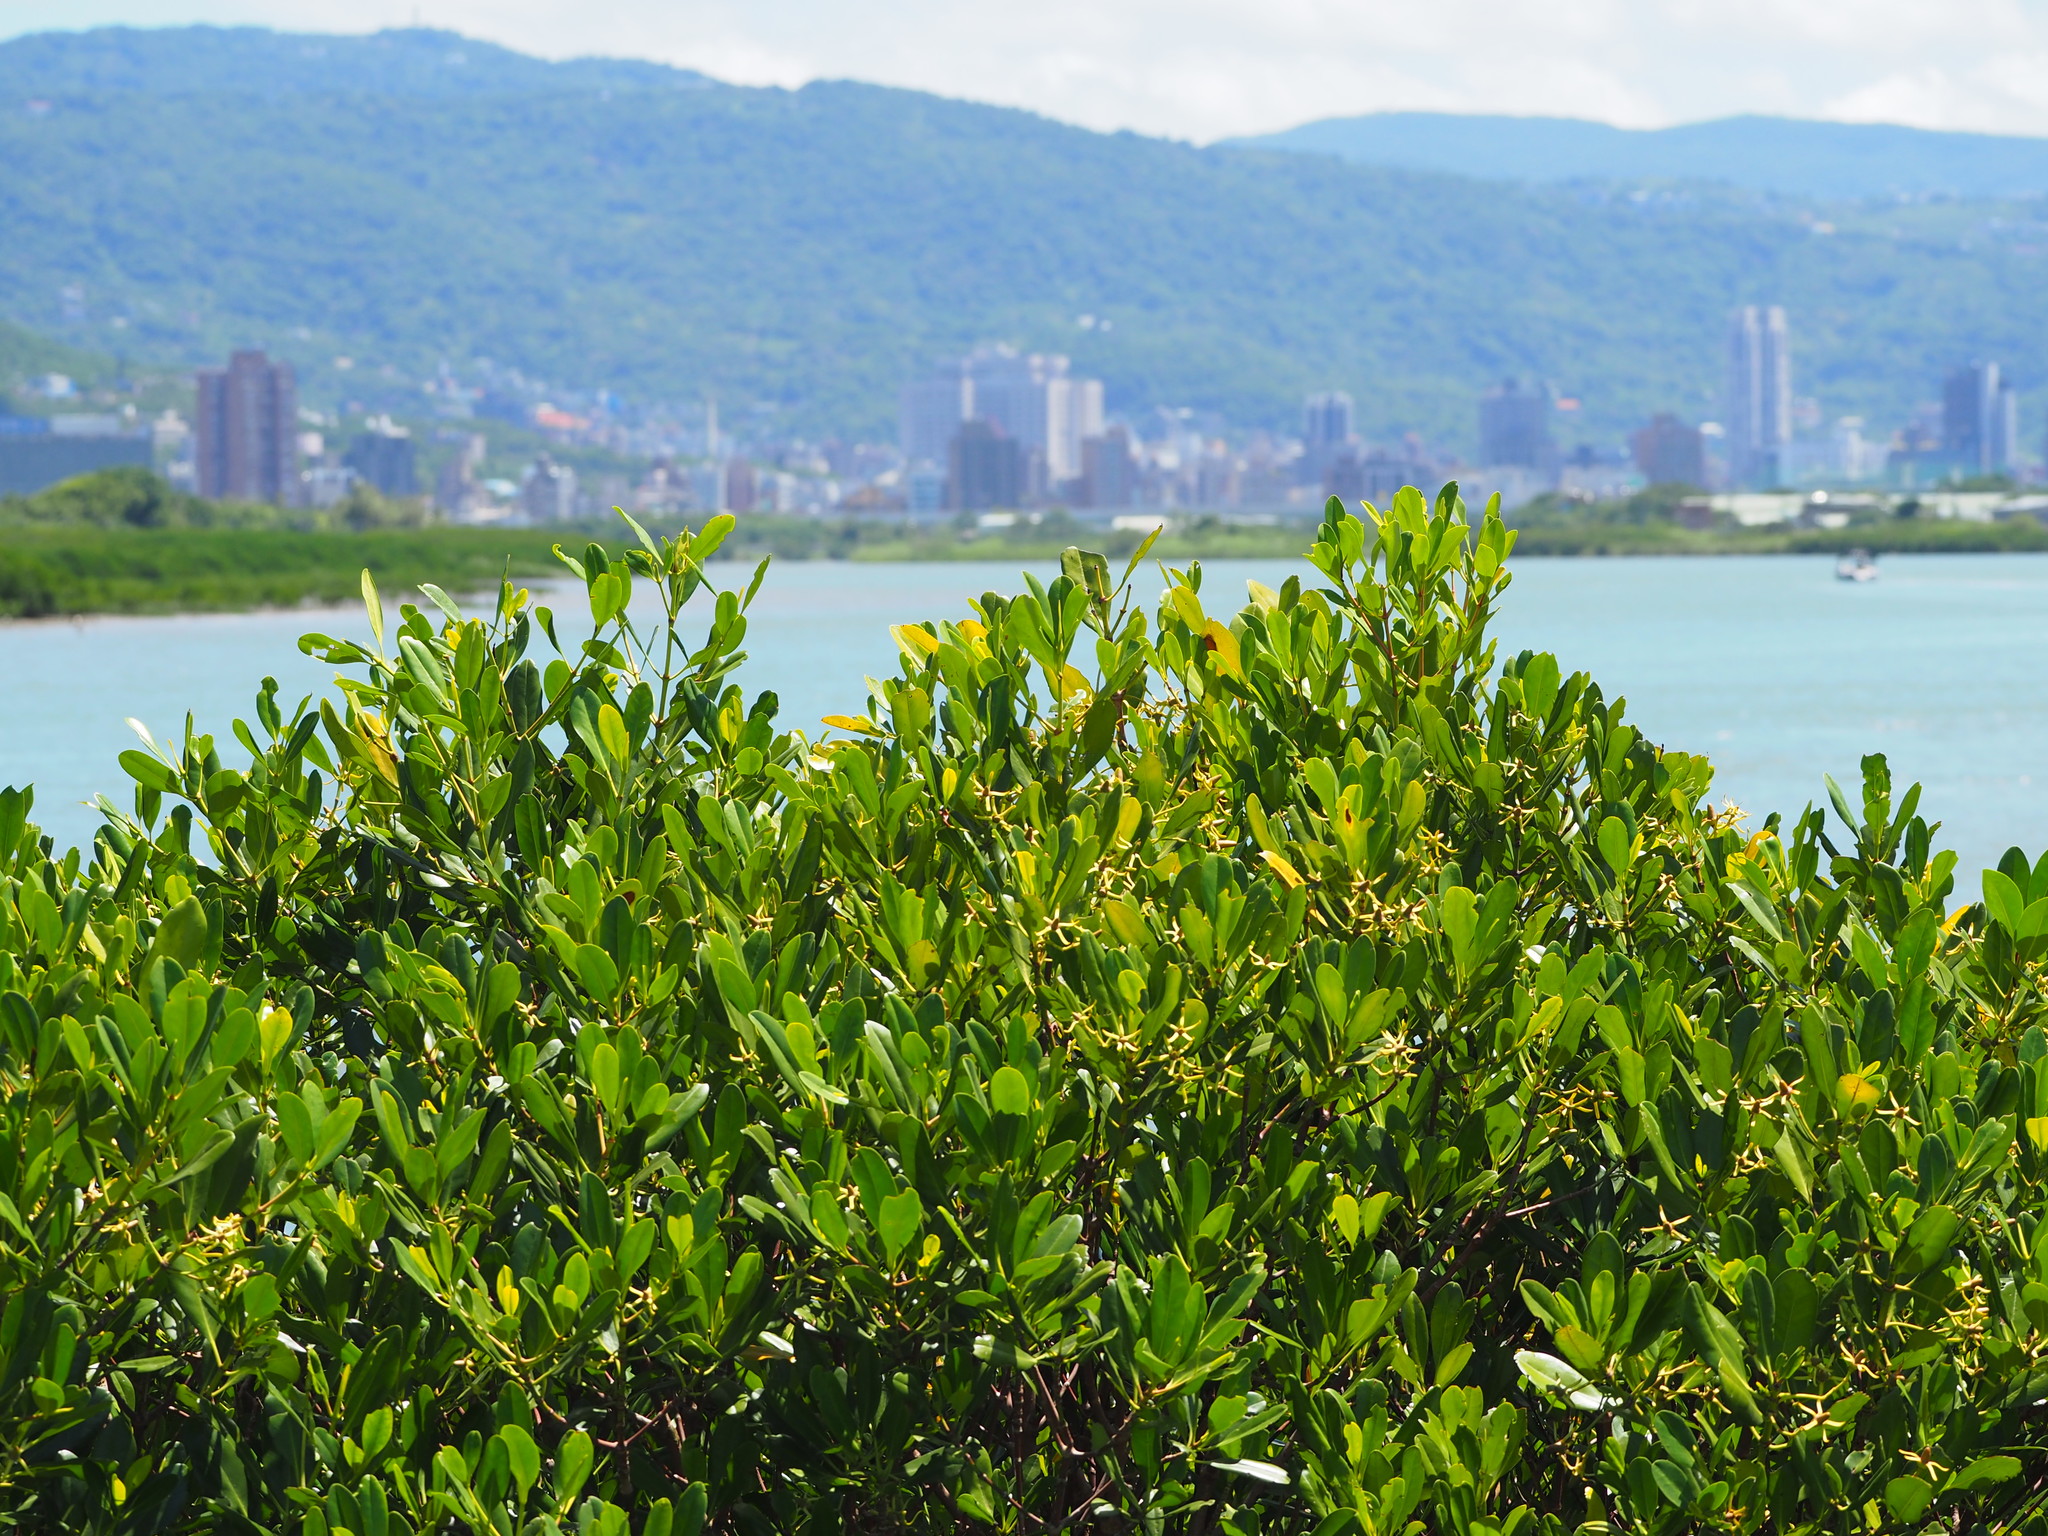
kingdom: Plantae
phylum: Tracheophyta
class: Magnoliopsida
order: Malpighiales
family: Rhizophoraceae
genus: Kandelia
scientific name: Kandelia obovata
